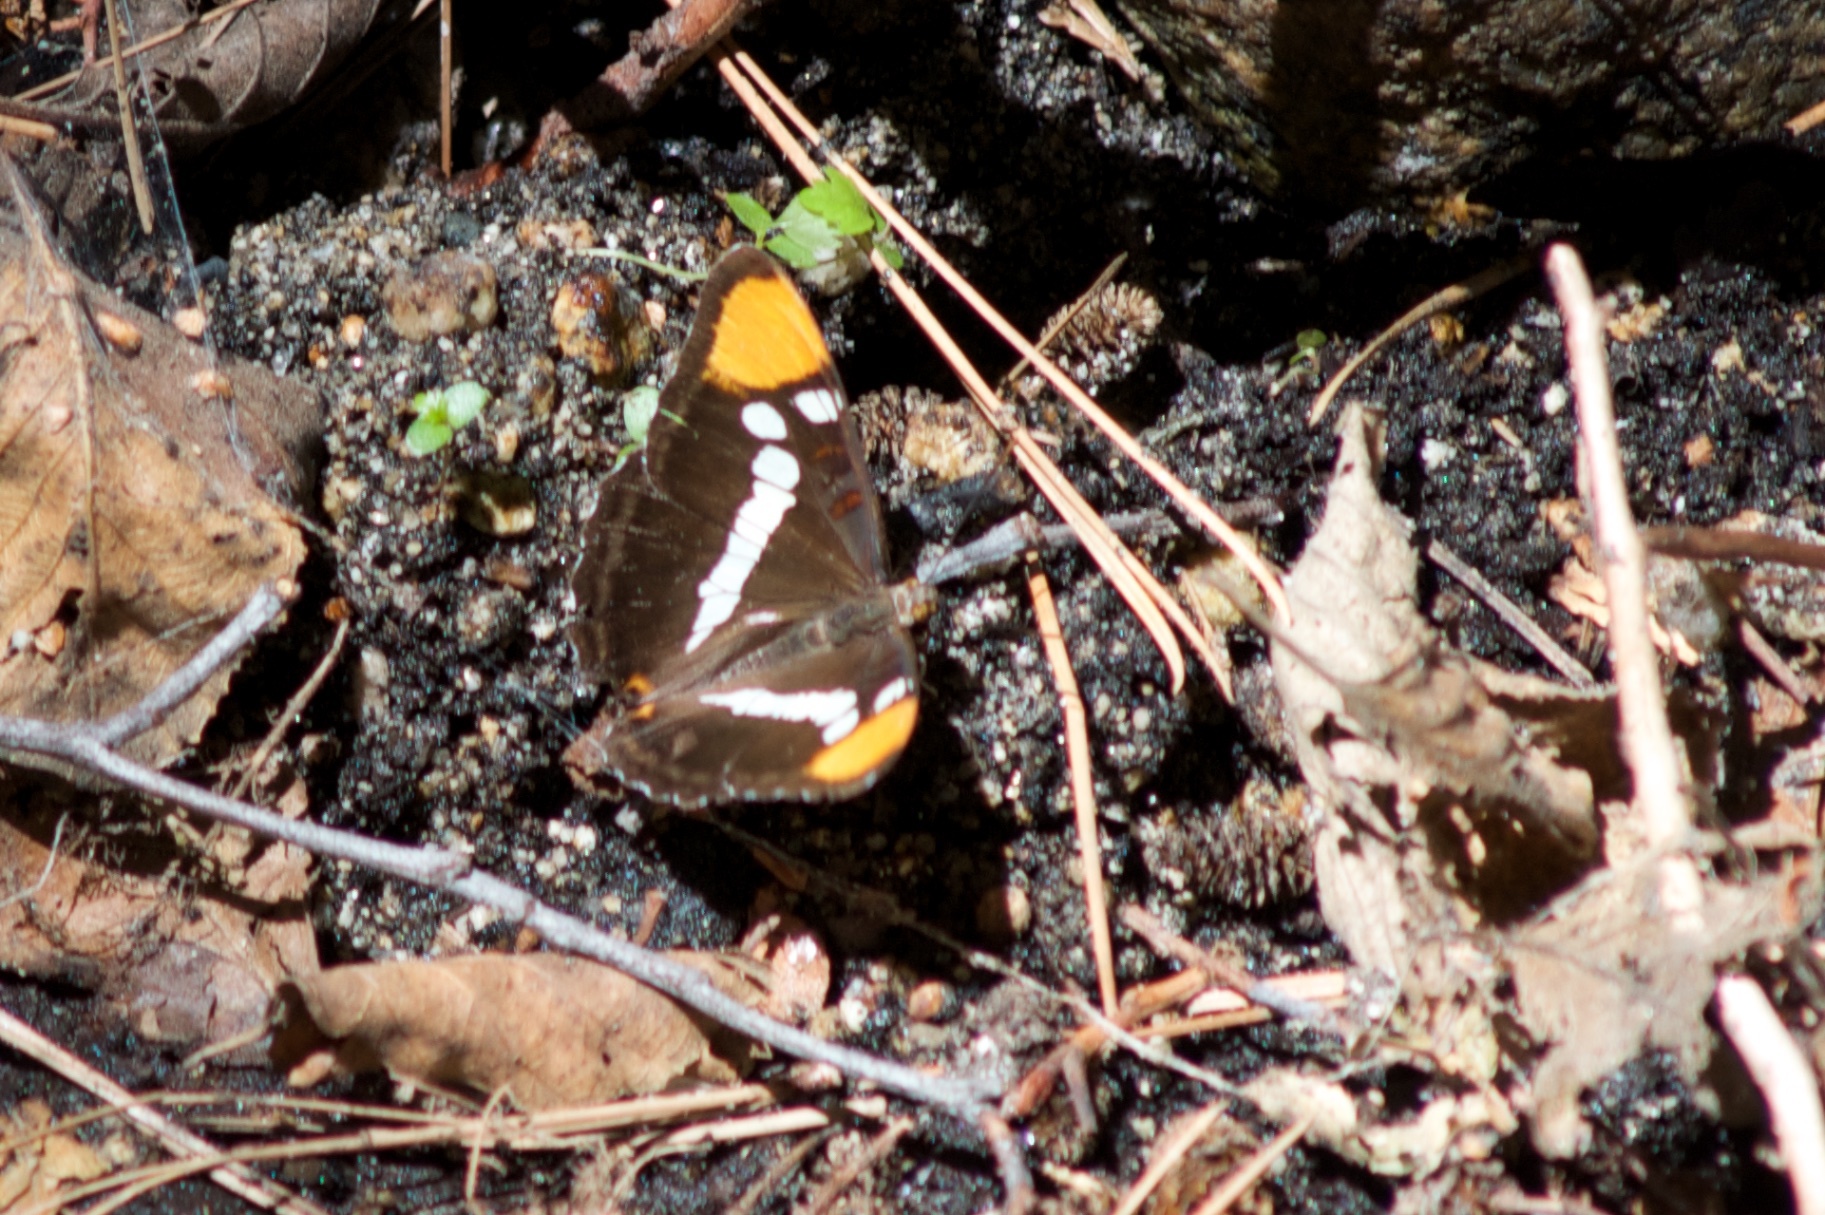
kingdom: Animalia
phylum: Arthropoda
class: Insecta
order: Lepidoptera
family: Nymphalidae
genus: Limenitis
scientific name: Limenitis bredowii
